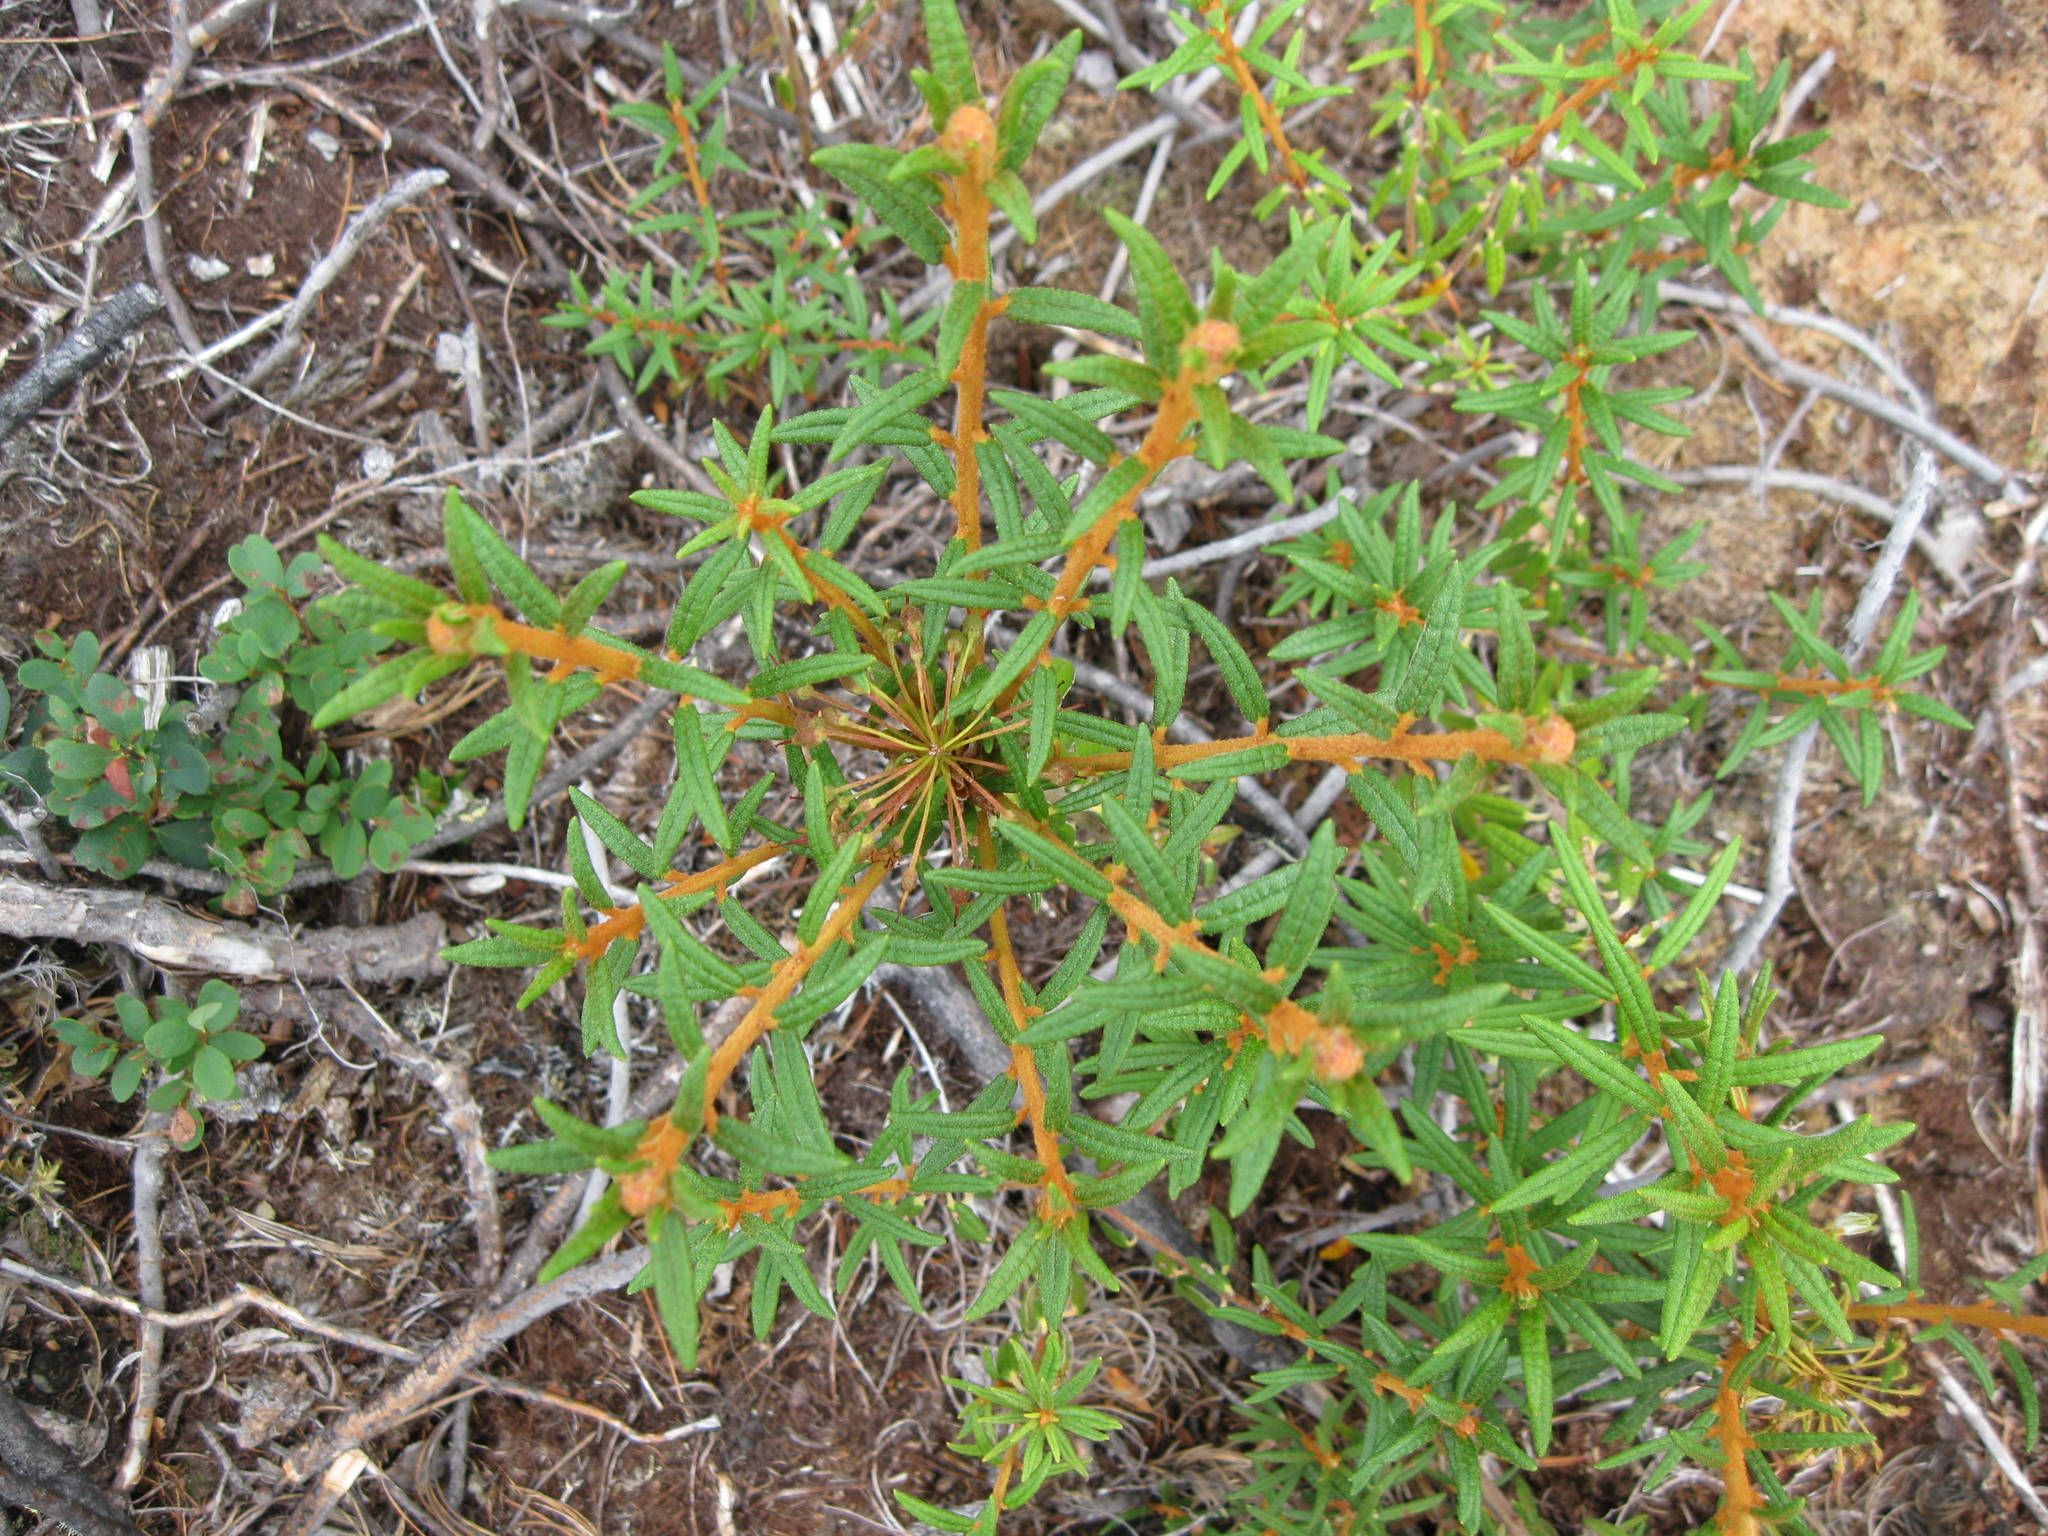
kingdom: Plantae
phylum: Tracheophyta
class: Magnoliopsida
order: Ericales
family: Ericaceae
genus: Rhododendron
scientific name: Rhododendron tomentosum
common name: Marsh labrador tea
